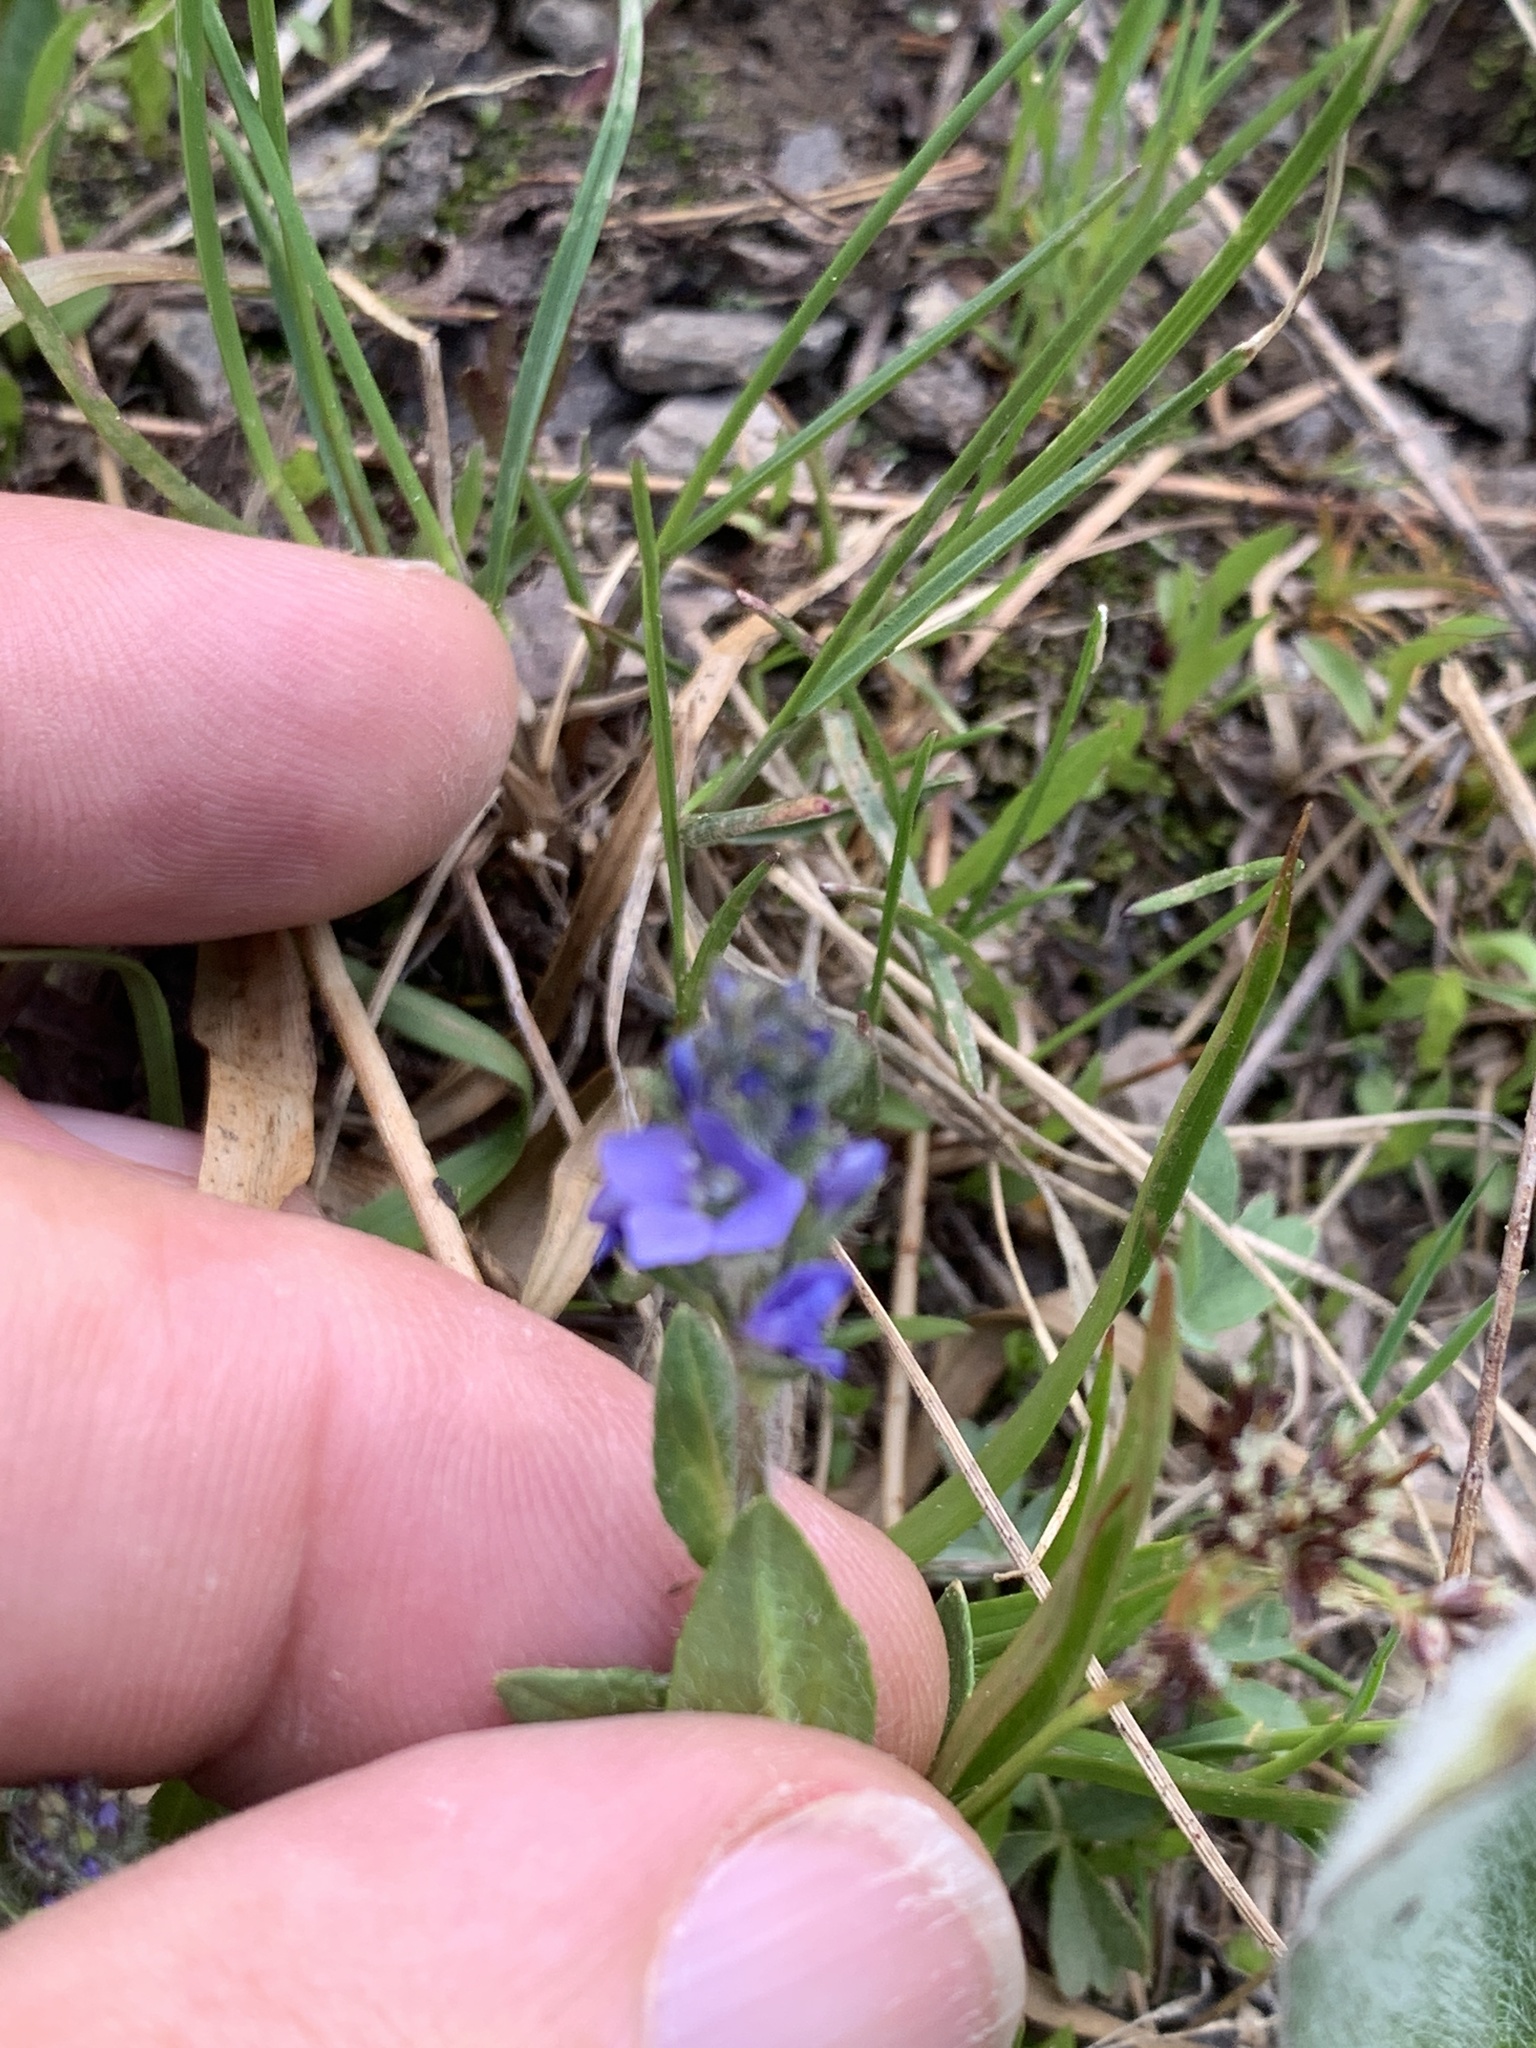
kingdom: Plantae
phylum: Tracheophyta
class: Magnoliopsida
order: Lamiales
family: Plantaginaceae
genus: Veronica
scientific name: Veronica wormskjoldii
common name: American alpine speedwell
